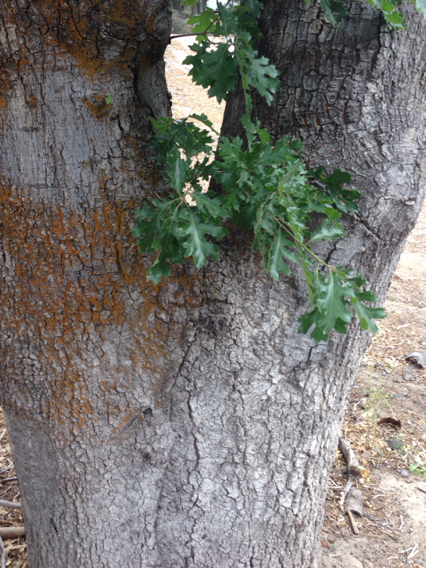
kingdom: Plantae
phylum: Tracheophyta
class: Magnoliopsida
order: Fagales
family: Fagaceae
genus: Quercus
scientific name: Quercus kelloggii
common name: California black oak
